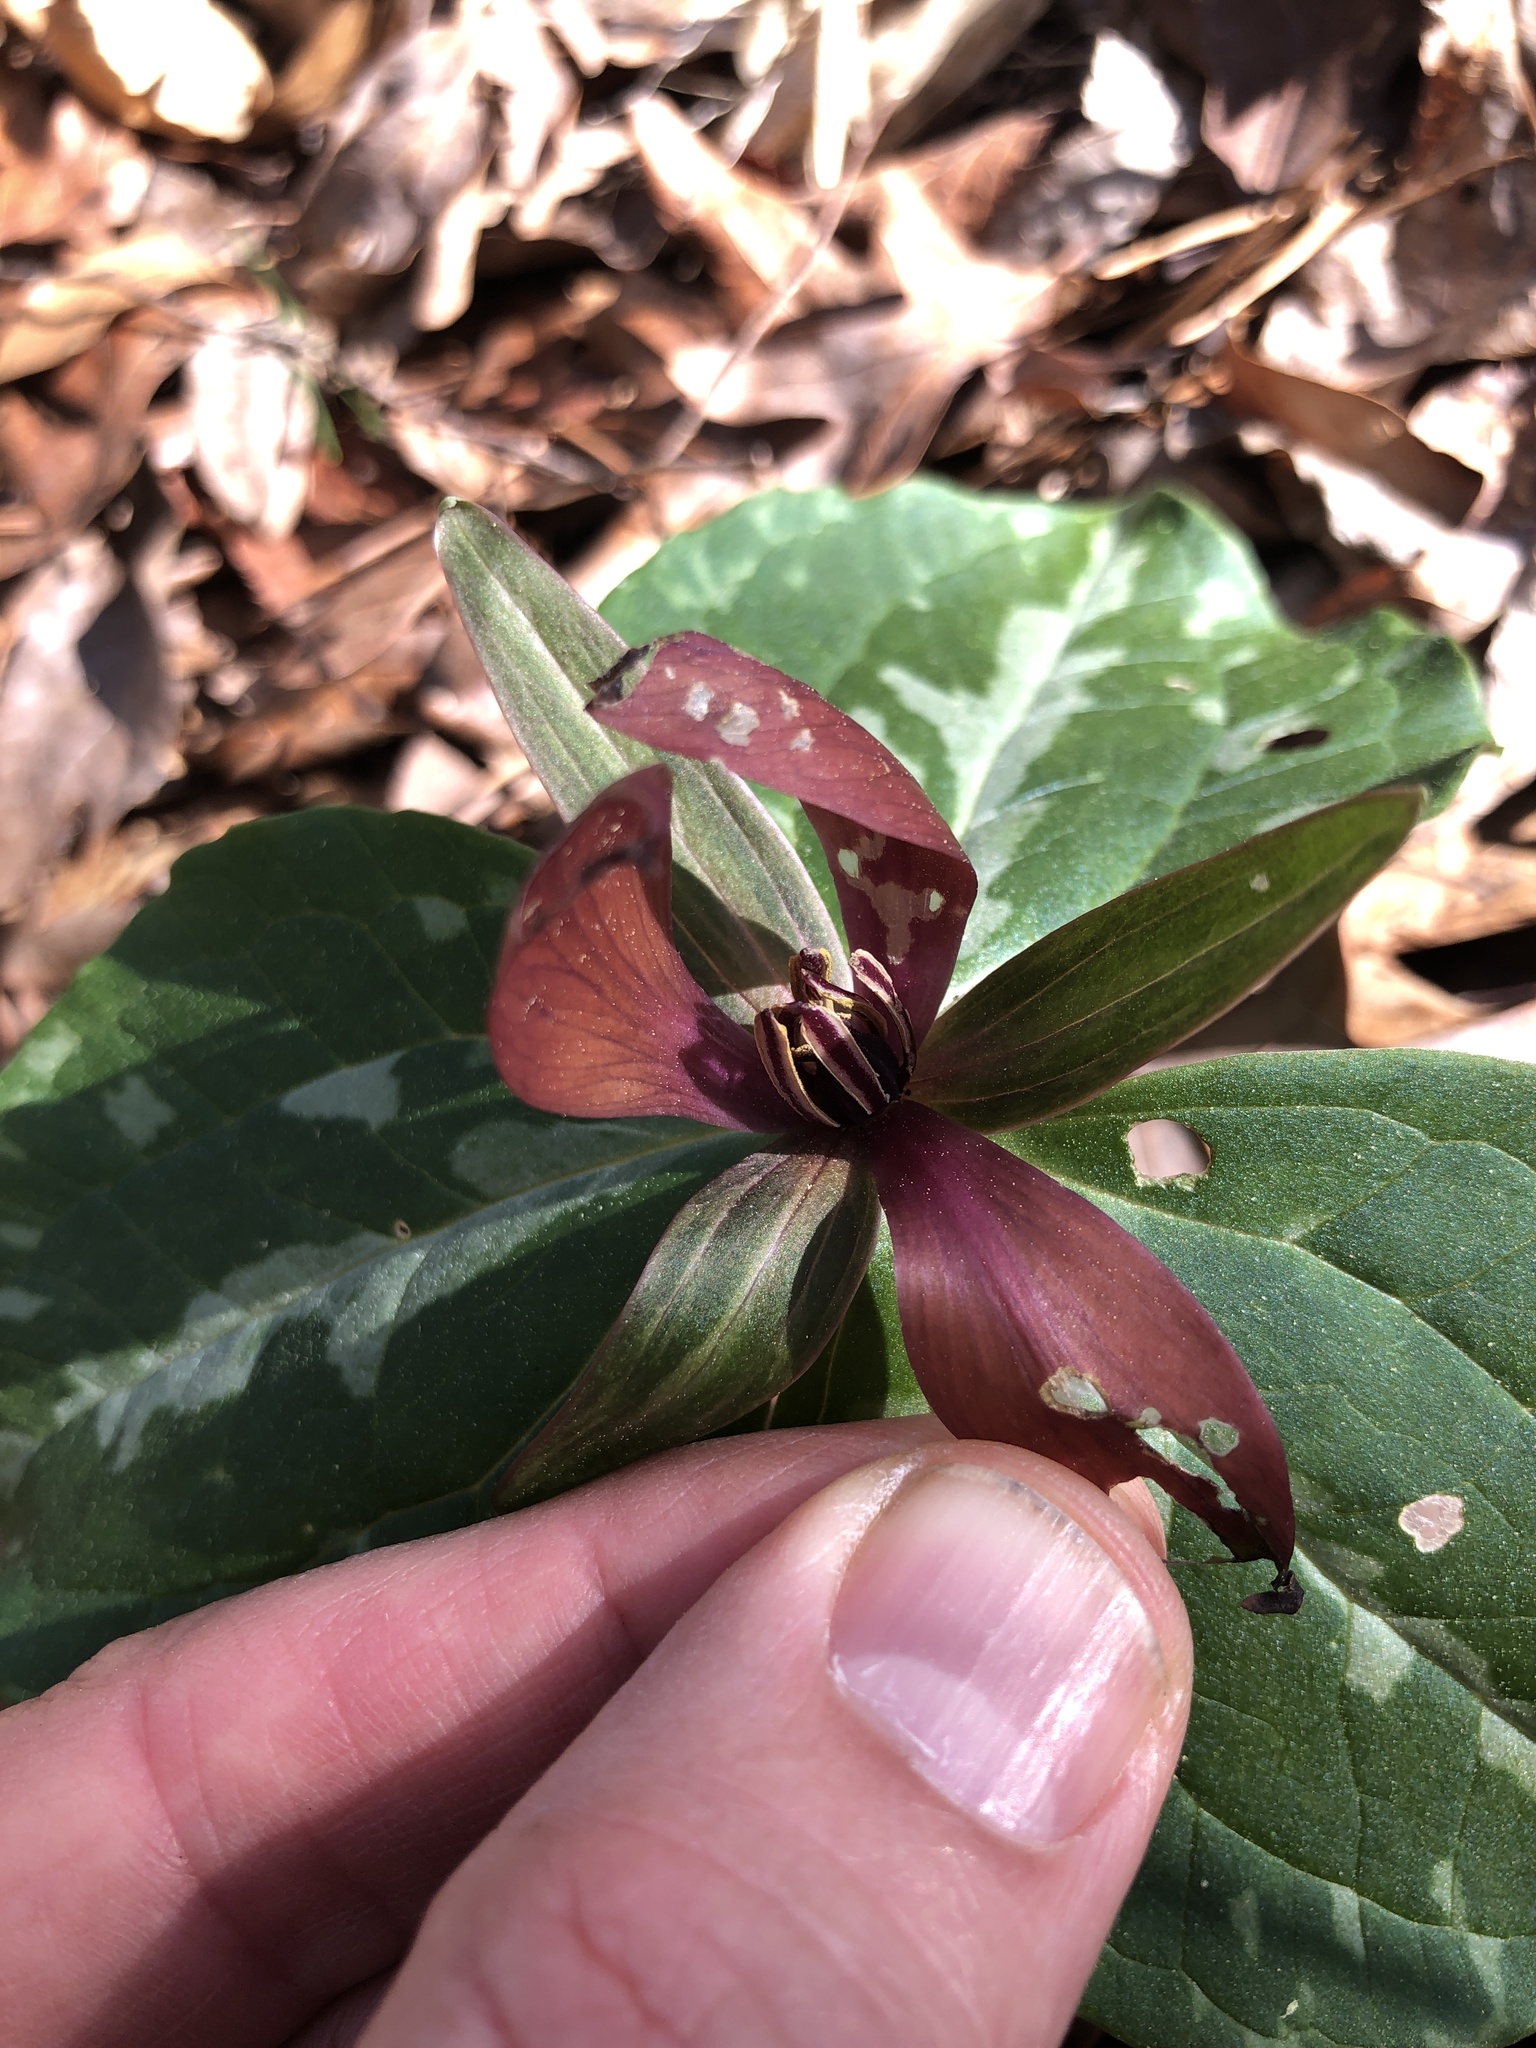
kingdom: Plantae
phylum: Tracheophyta
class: Liliopsida
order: Liliales
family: Melanthiaceae
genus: Trillium
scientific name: Trillium cuneatum
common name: Cuneate trillium
